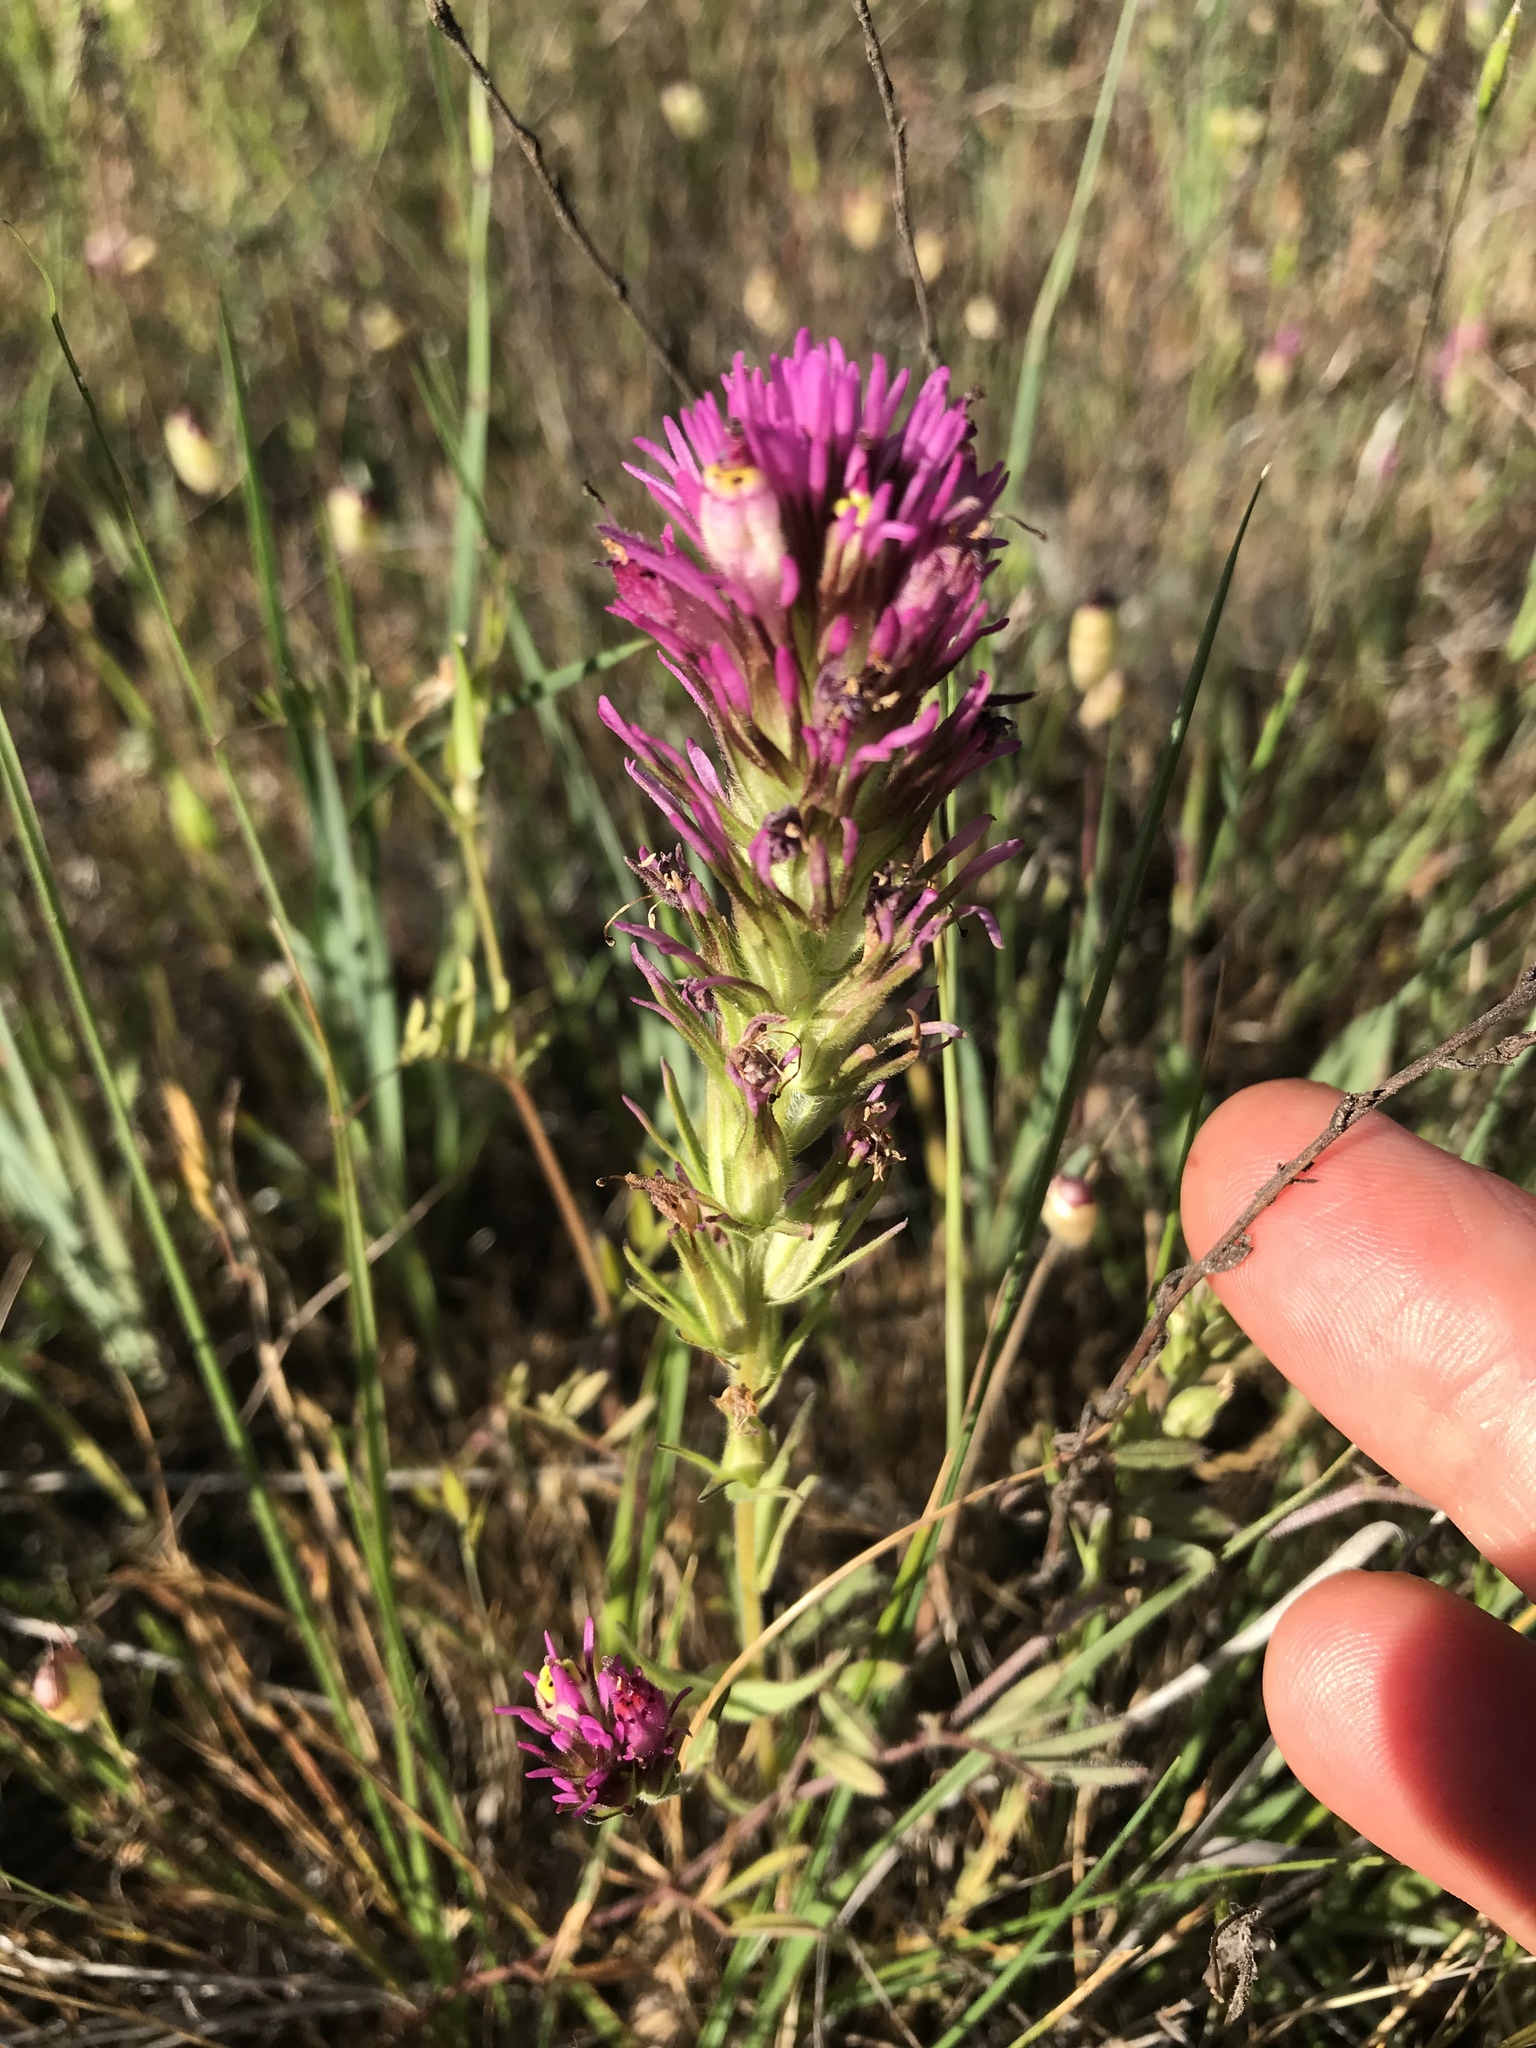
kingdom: Plantae
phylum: Tracheophyta
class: Magnoliopsida
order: Lamiales
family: Orobanchaceae
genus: Castilleja
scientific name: Castilleja densiflora
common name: Dense-flower indian paintbrush
